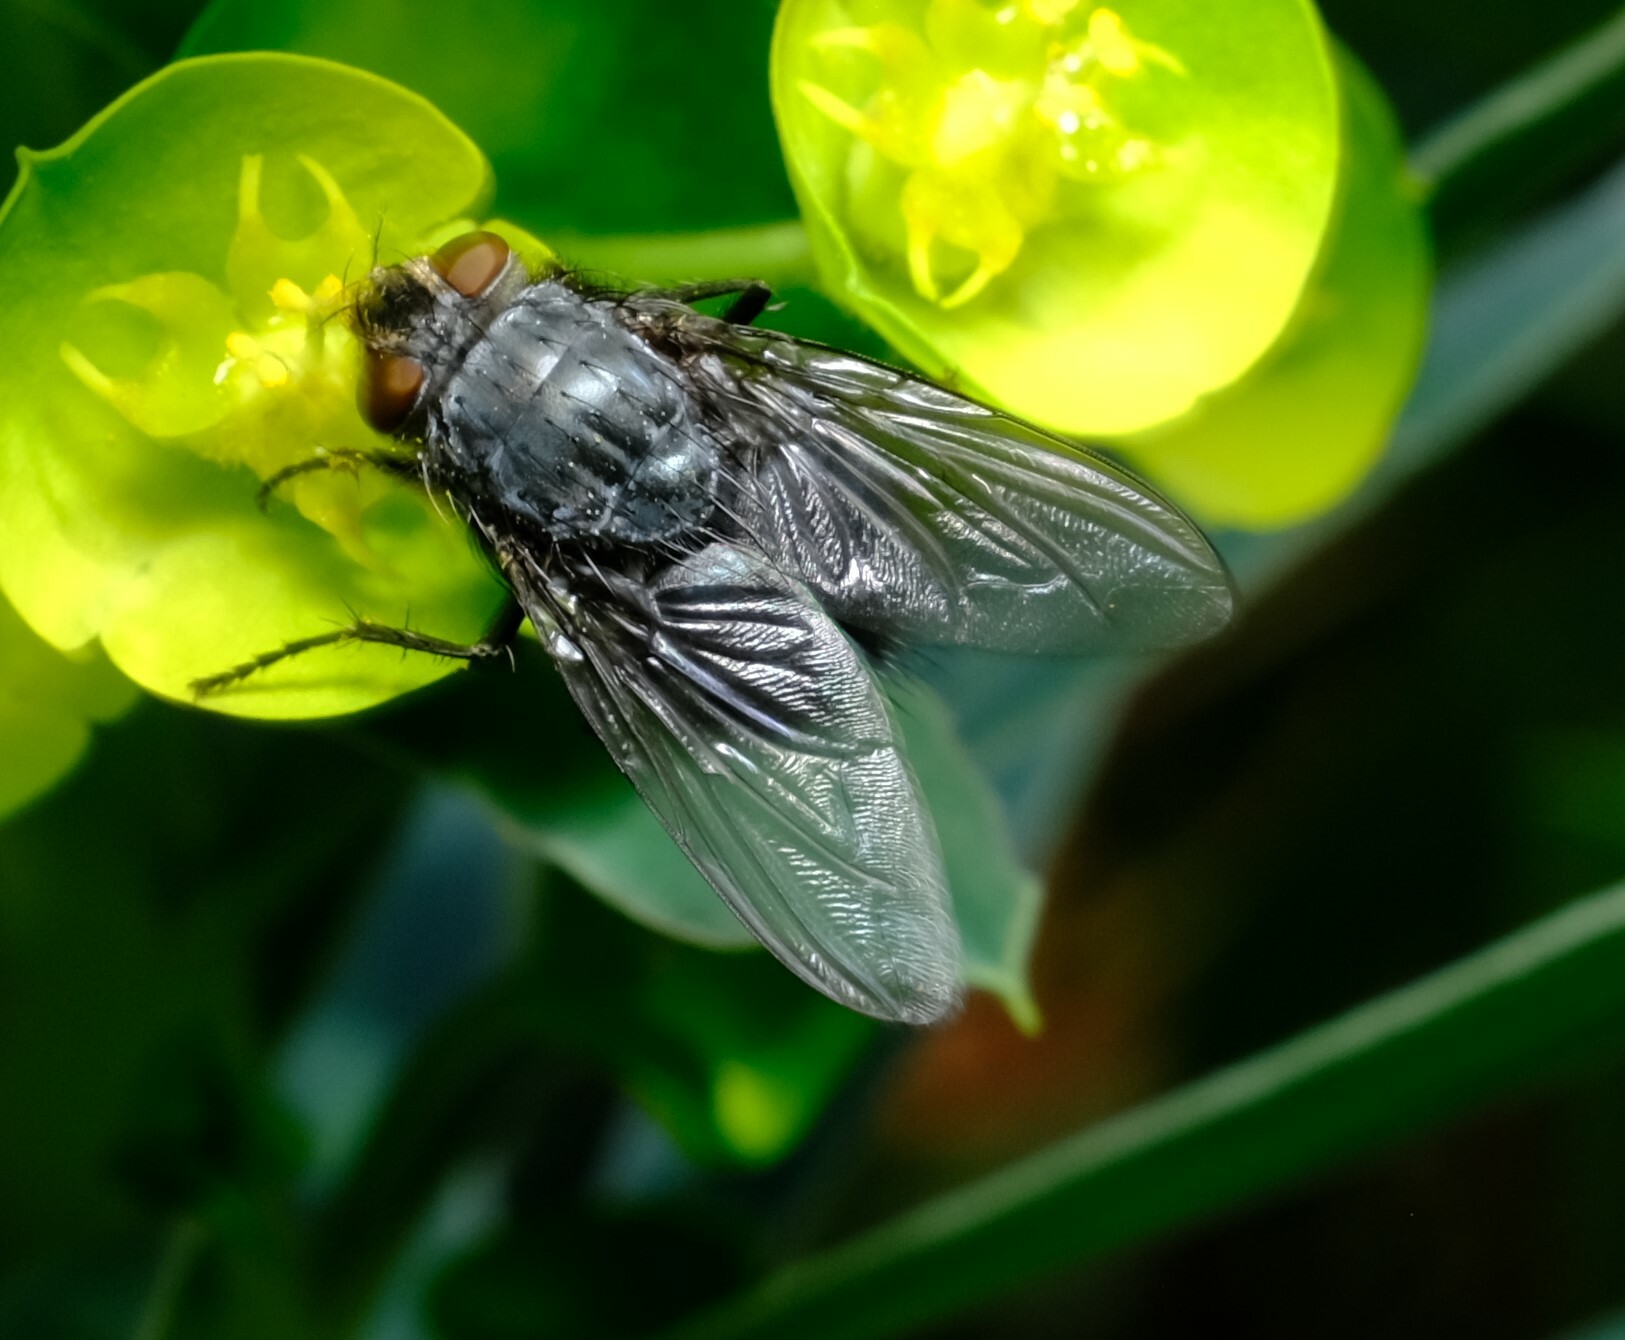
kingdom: Animalia
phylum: Arthropoda
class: Insecta
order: Diptera
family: Calliphoridae
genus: Calliphora
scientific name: Calliphora vicina
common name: Common blow flie
